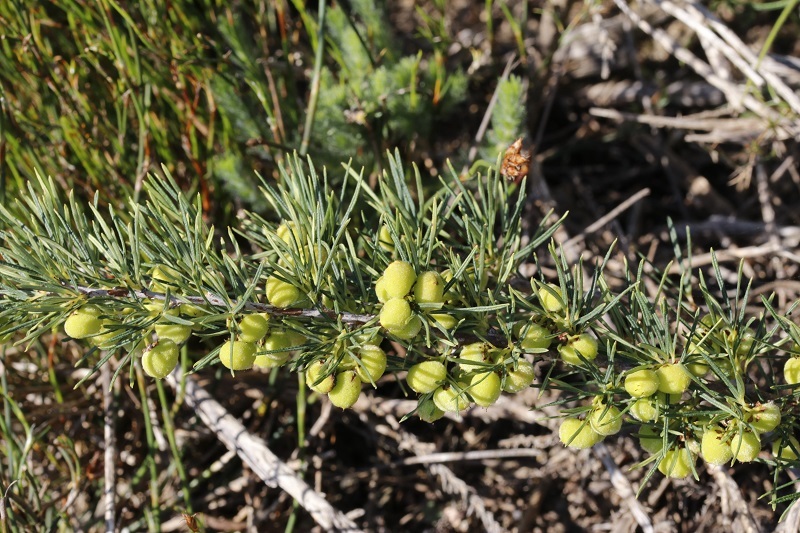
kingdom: Plantae
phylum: Tracheophyta
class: Magnoliopsida
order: Sapindales
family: Anacardiaceae
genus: Searsia
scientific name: Searsia rosmarinifolia
